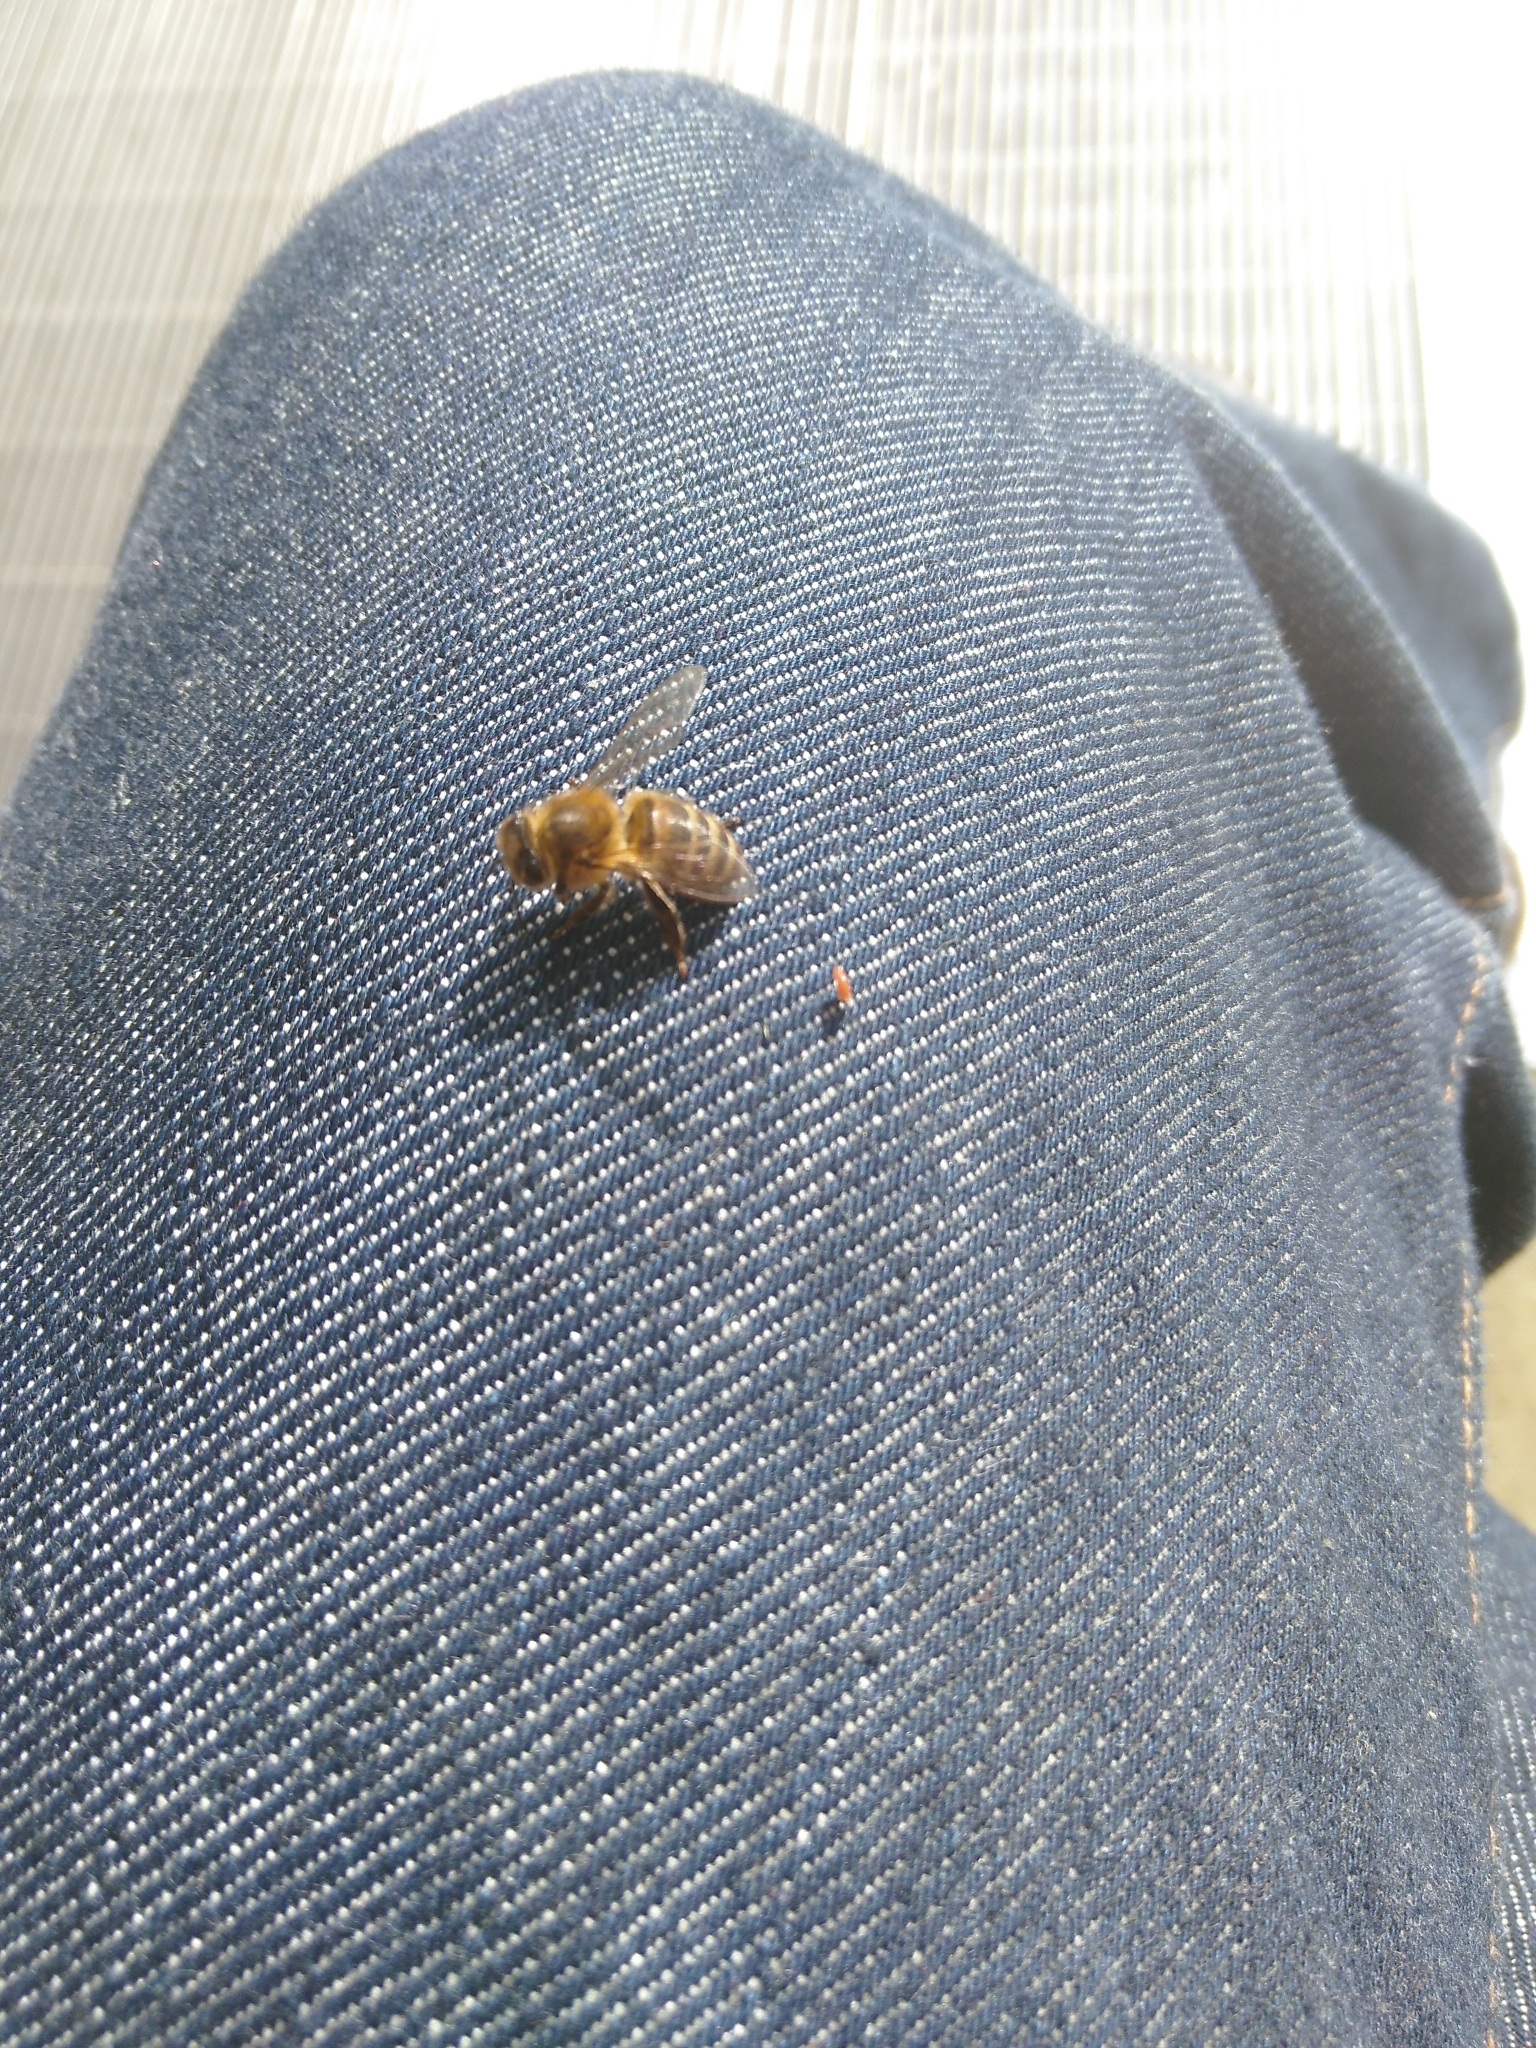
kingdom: Animalia
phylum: Arthropoda
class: Insecta
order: Hymenoptera
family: Apidae
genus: Apis
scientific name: Apis mellifera
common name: Honey bee
